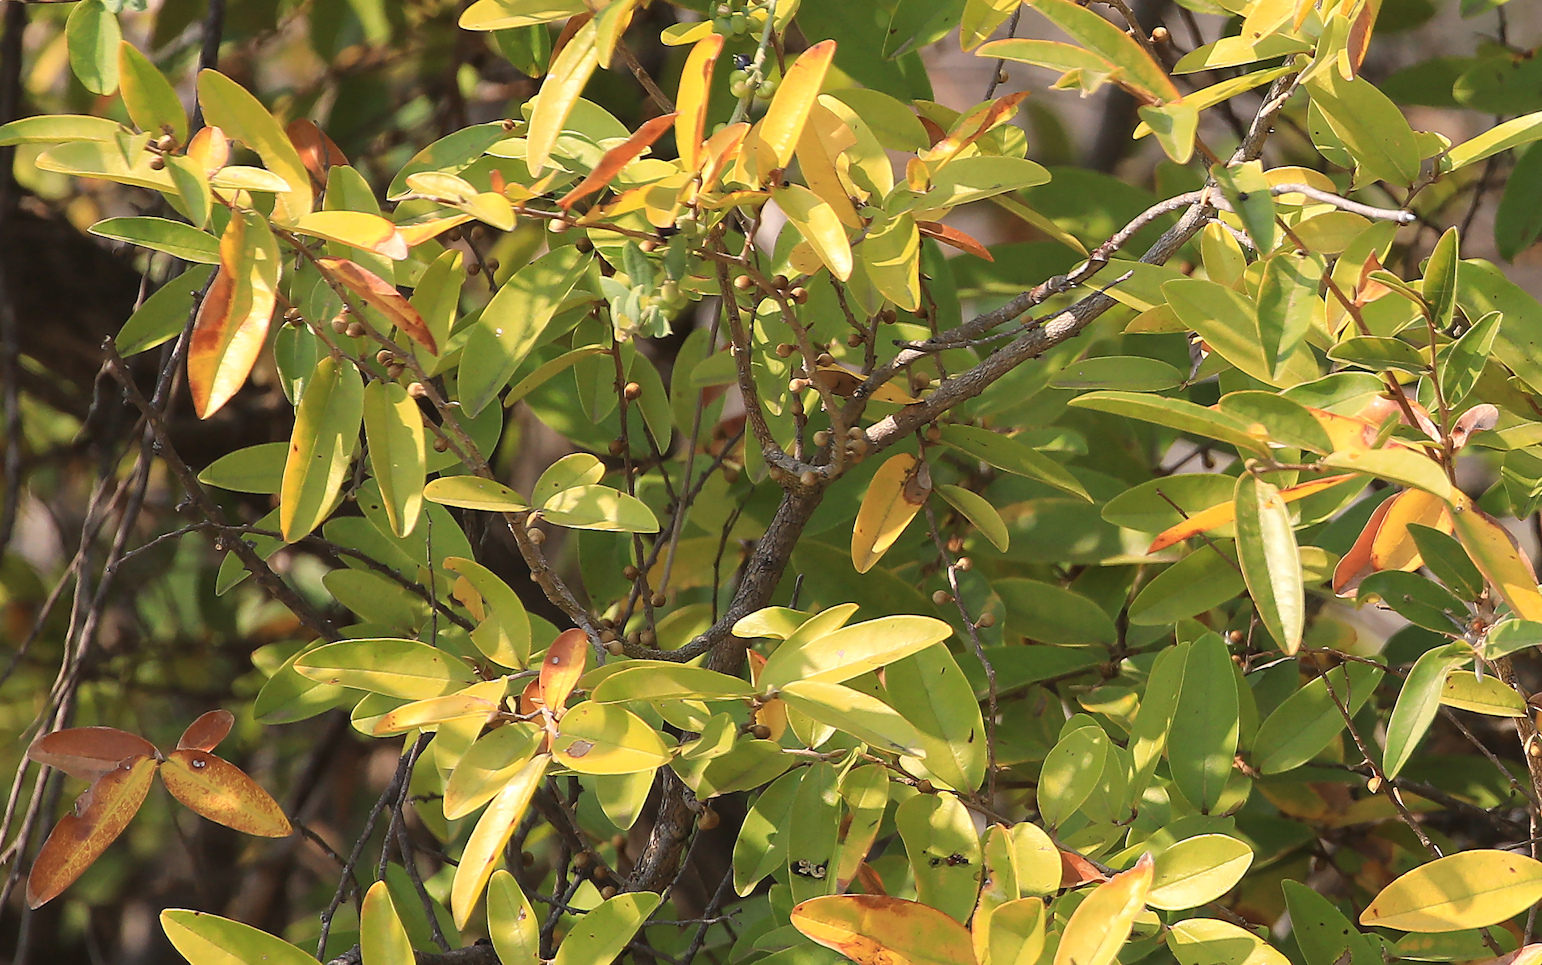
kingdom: Plantae
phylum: Tracheophyta
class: Magnoliopsida
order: Magnoliales
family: Annonaceae
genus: Hexalobus
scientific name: Hexalobus monopetalus
